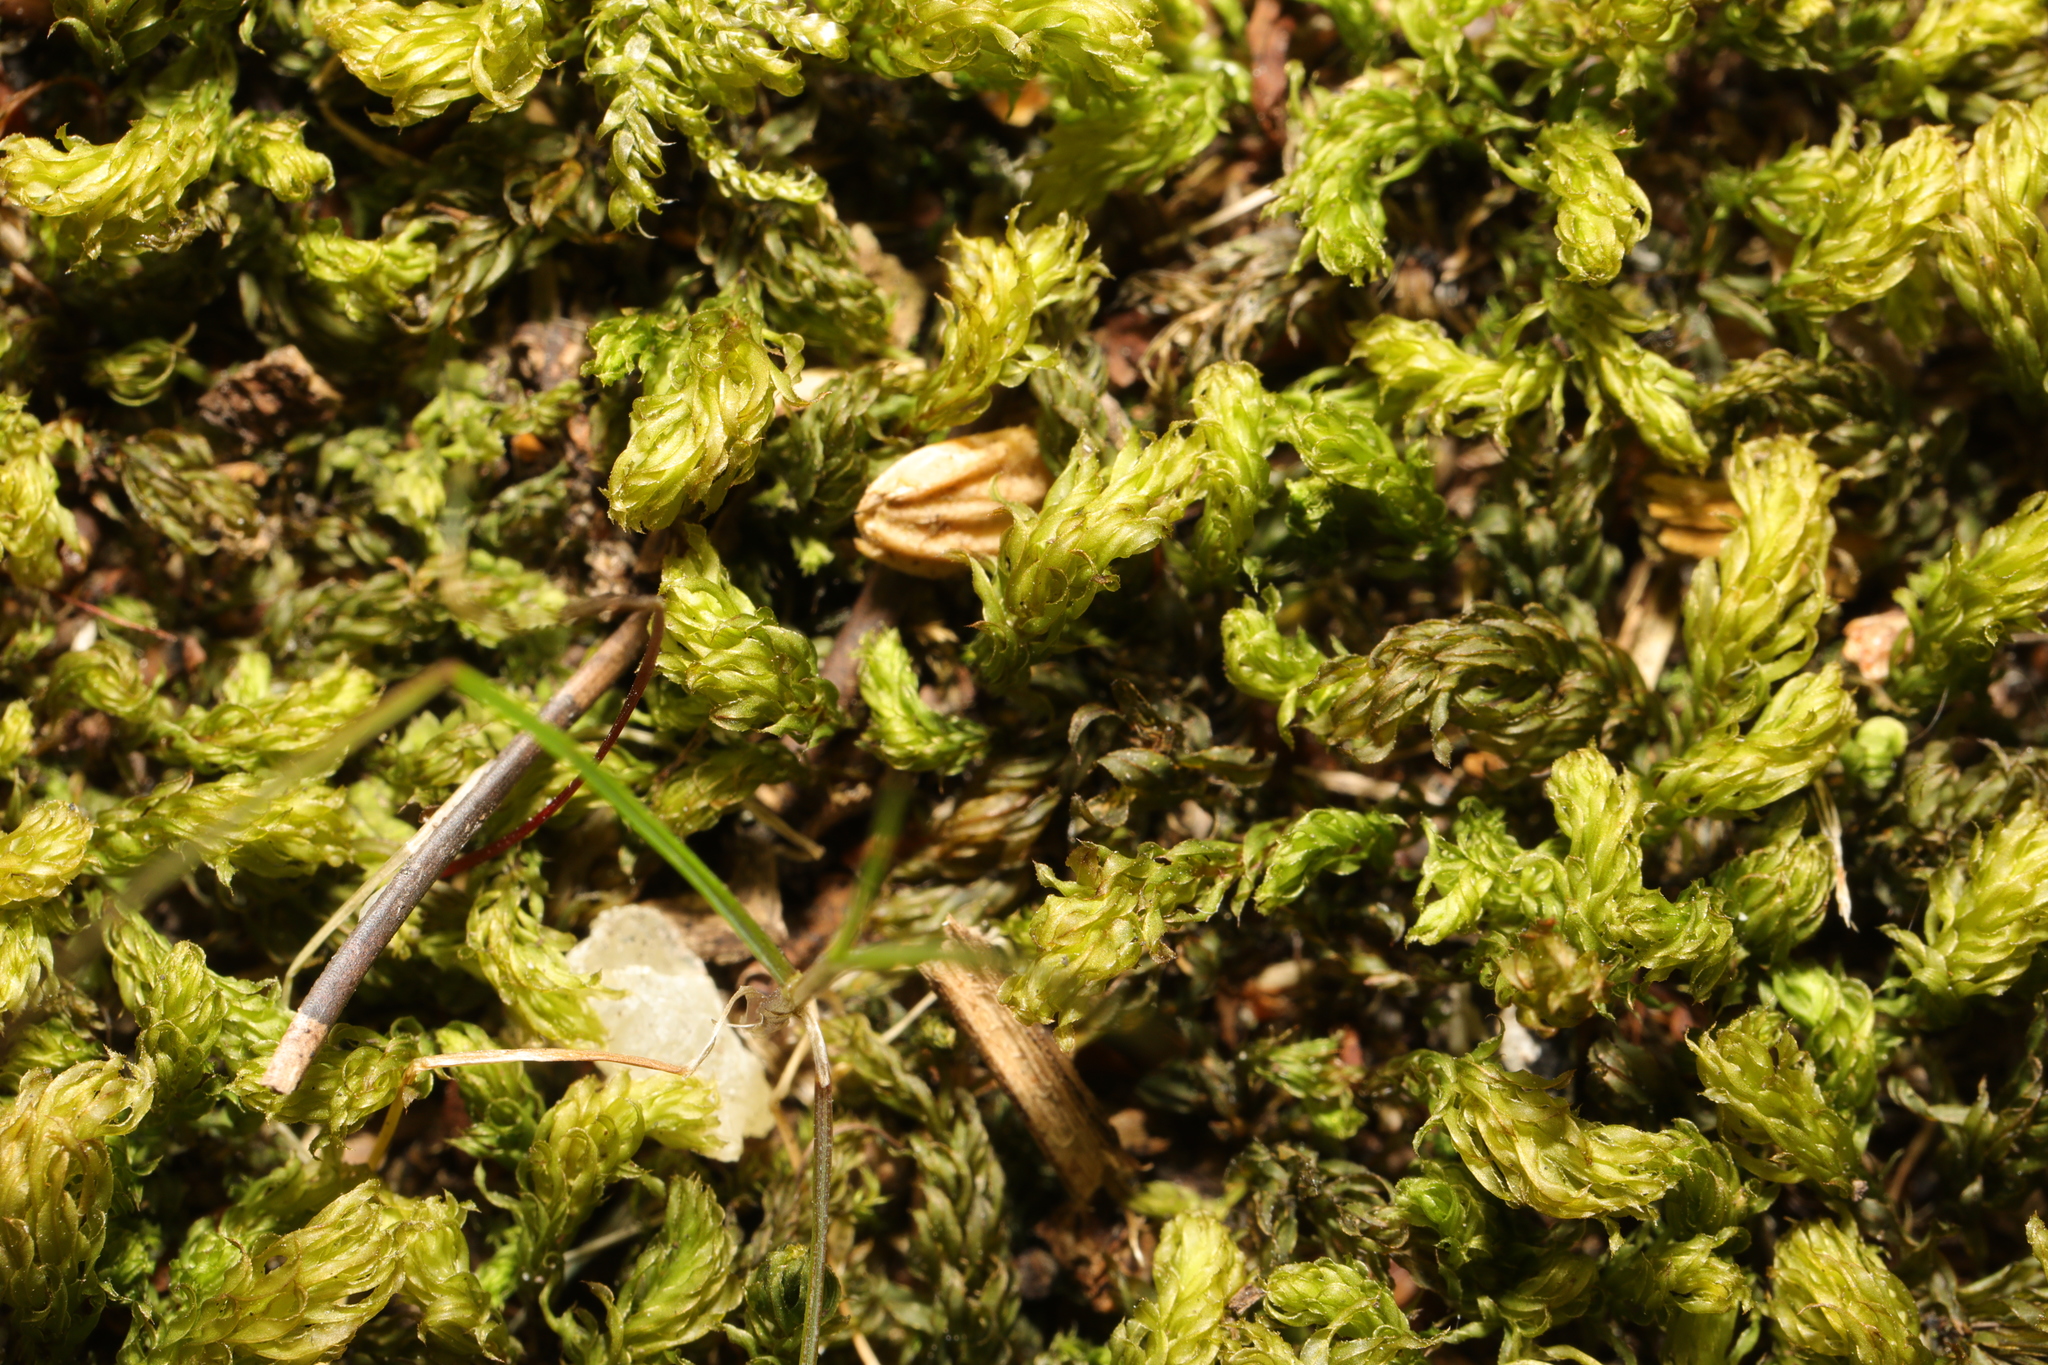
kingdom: Plantae
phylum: Bryophyta
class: Bryopsida
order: Bryales
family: Mniaceae
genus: Mnium
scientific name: Mnium hornum
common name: Swan's-neck leafy moss
